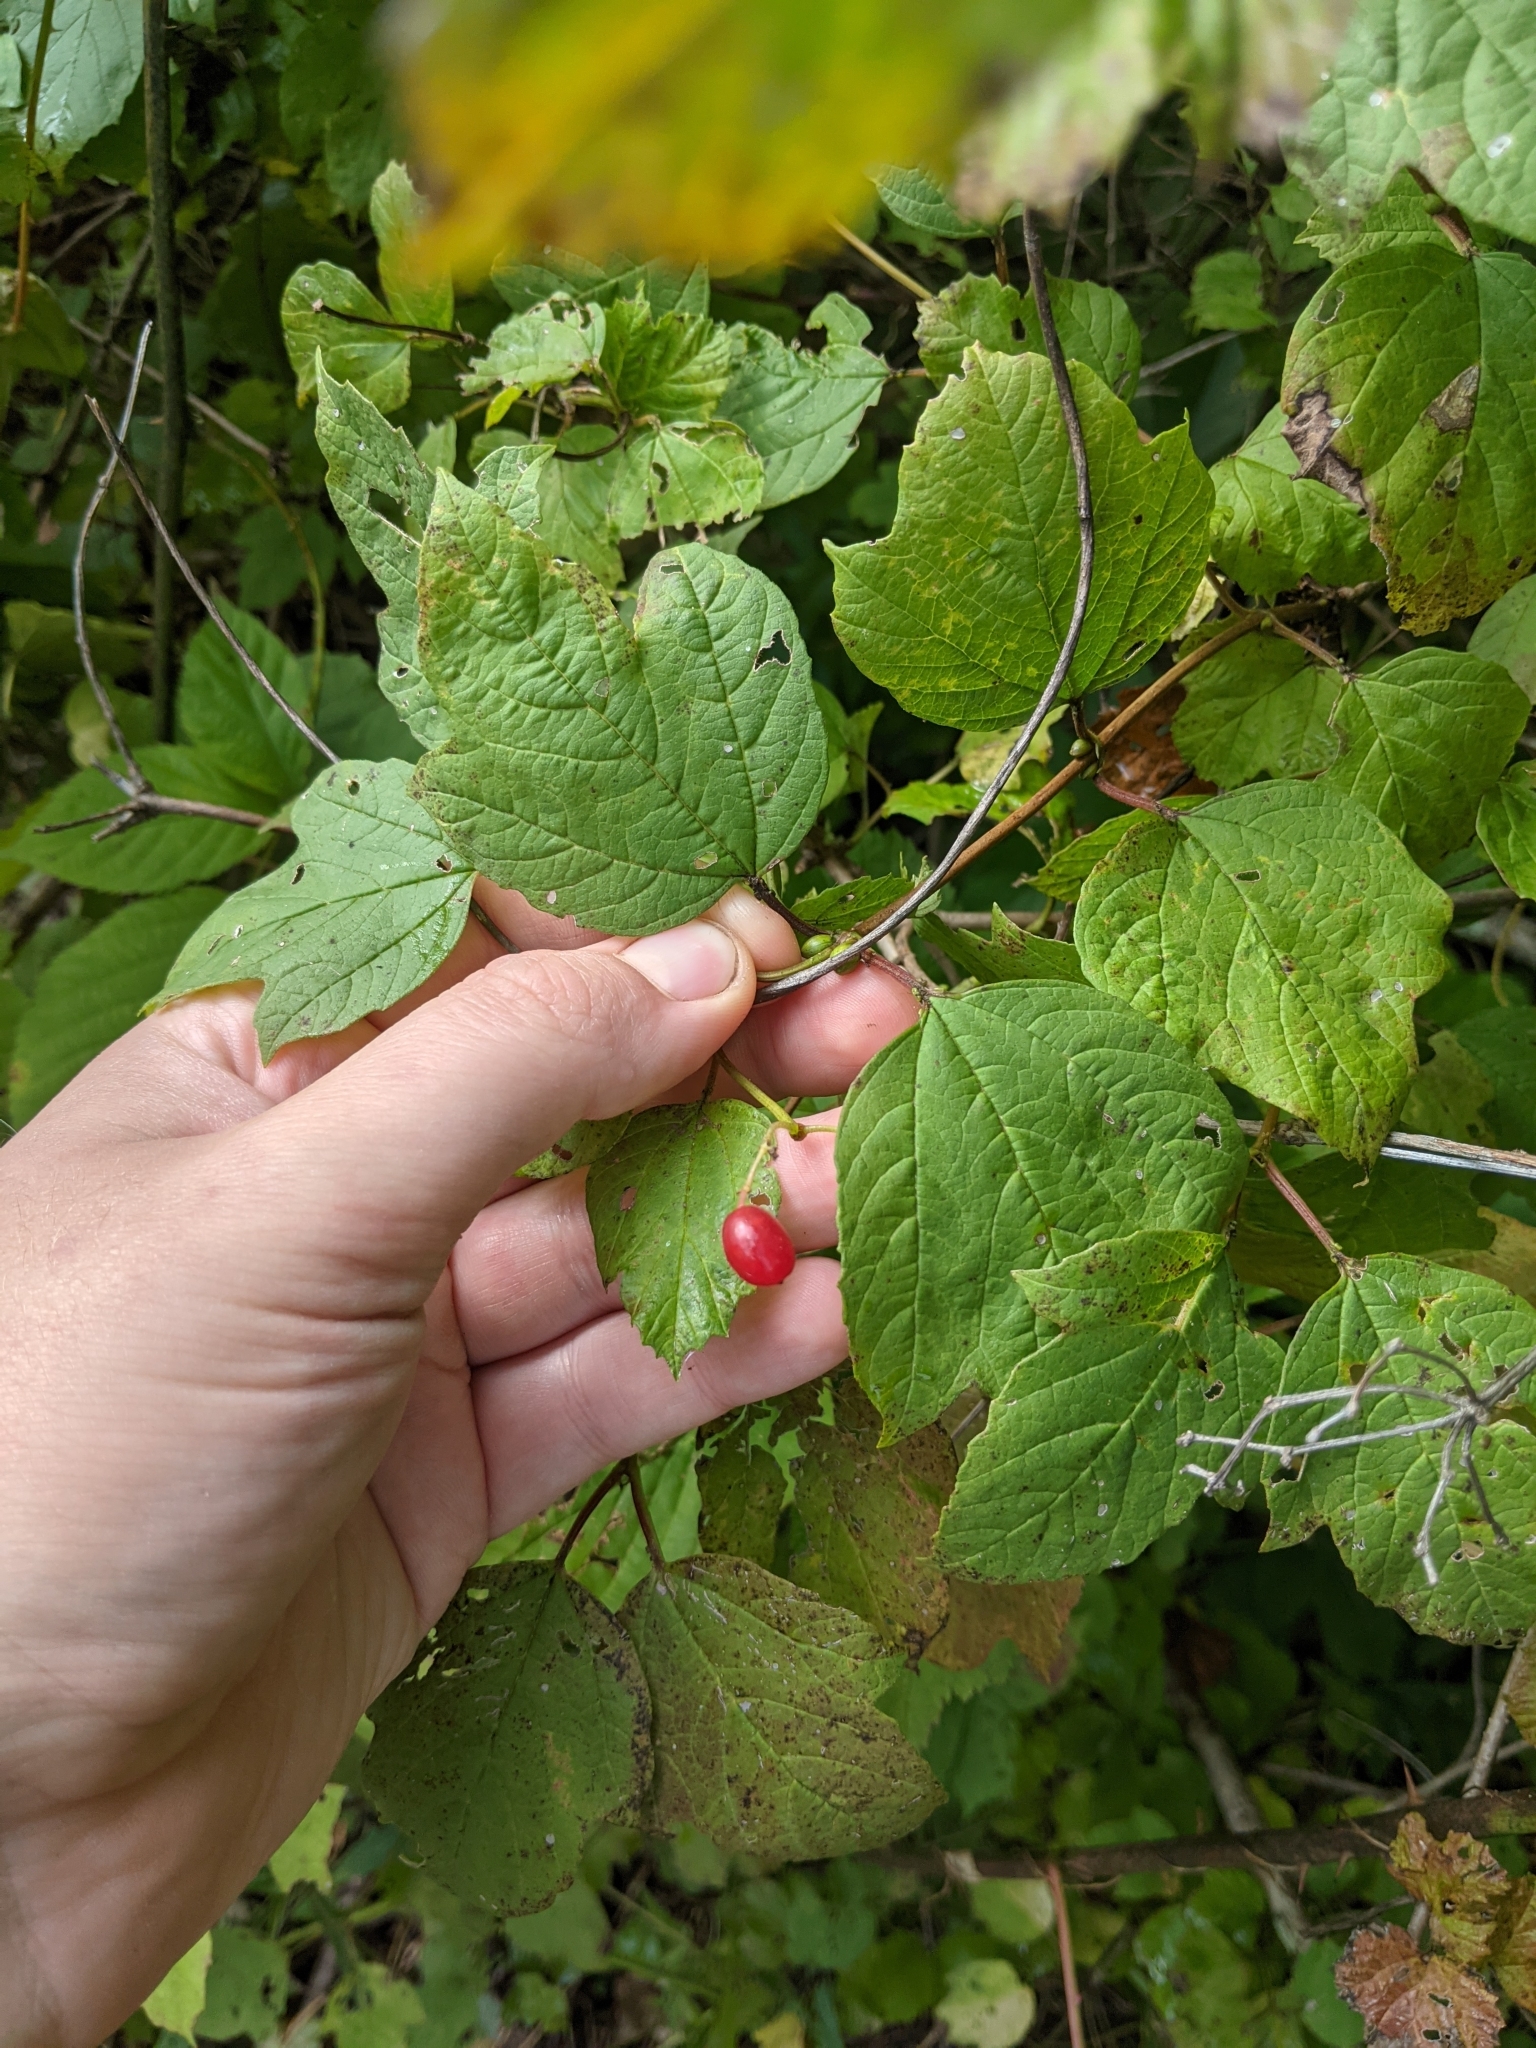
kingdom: Plantae
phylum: Tracheophyta
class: Magnoliopsida
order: Dipsacales
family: Viburnaceae
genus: Viburnum
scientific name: Viburnum opulus
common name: Guelder-rose
